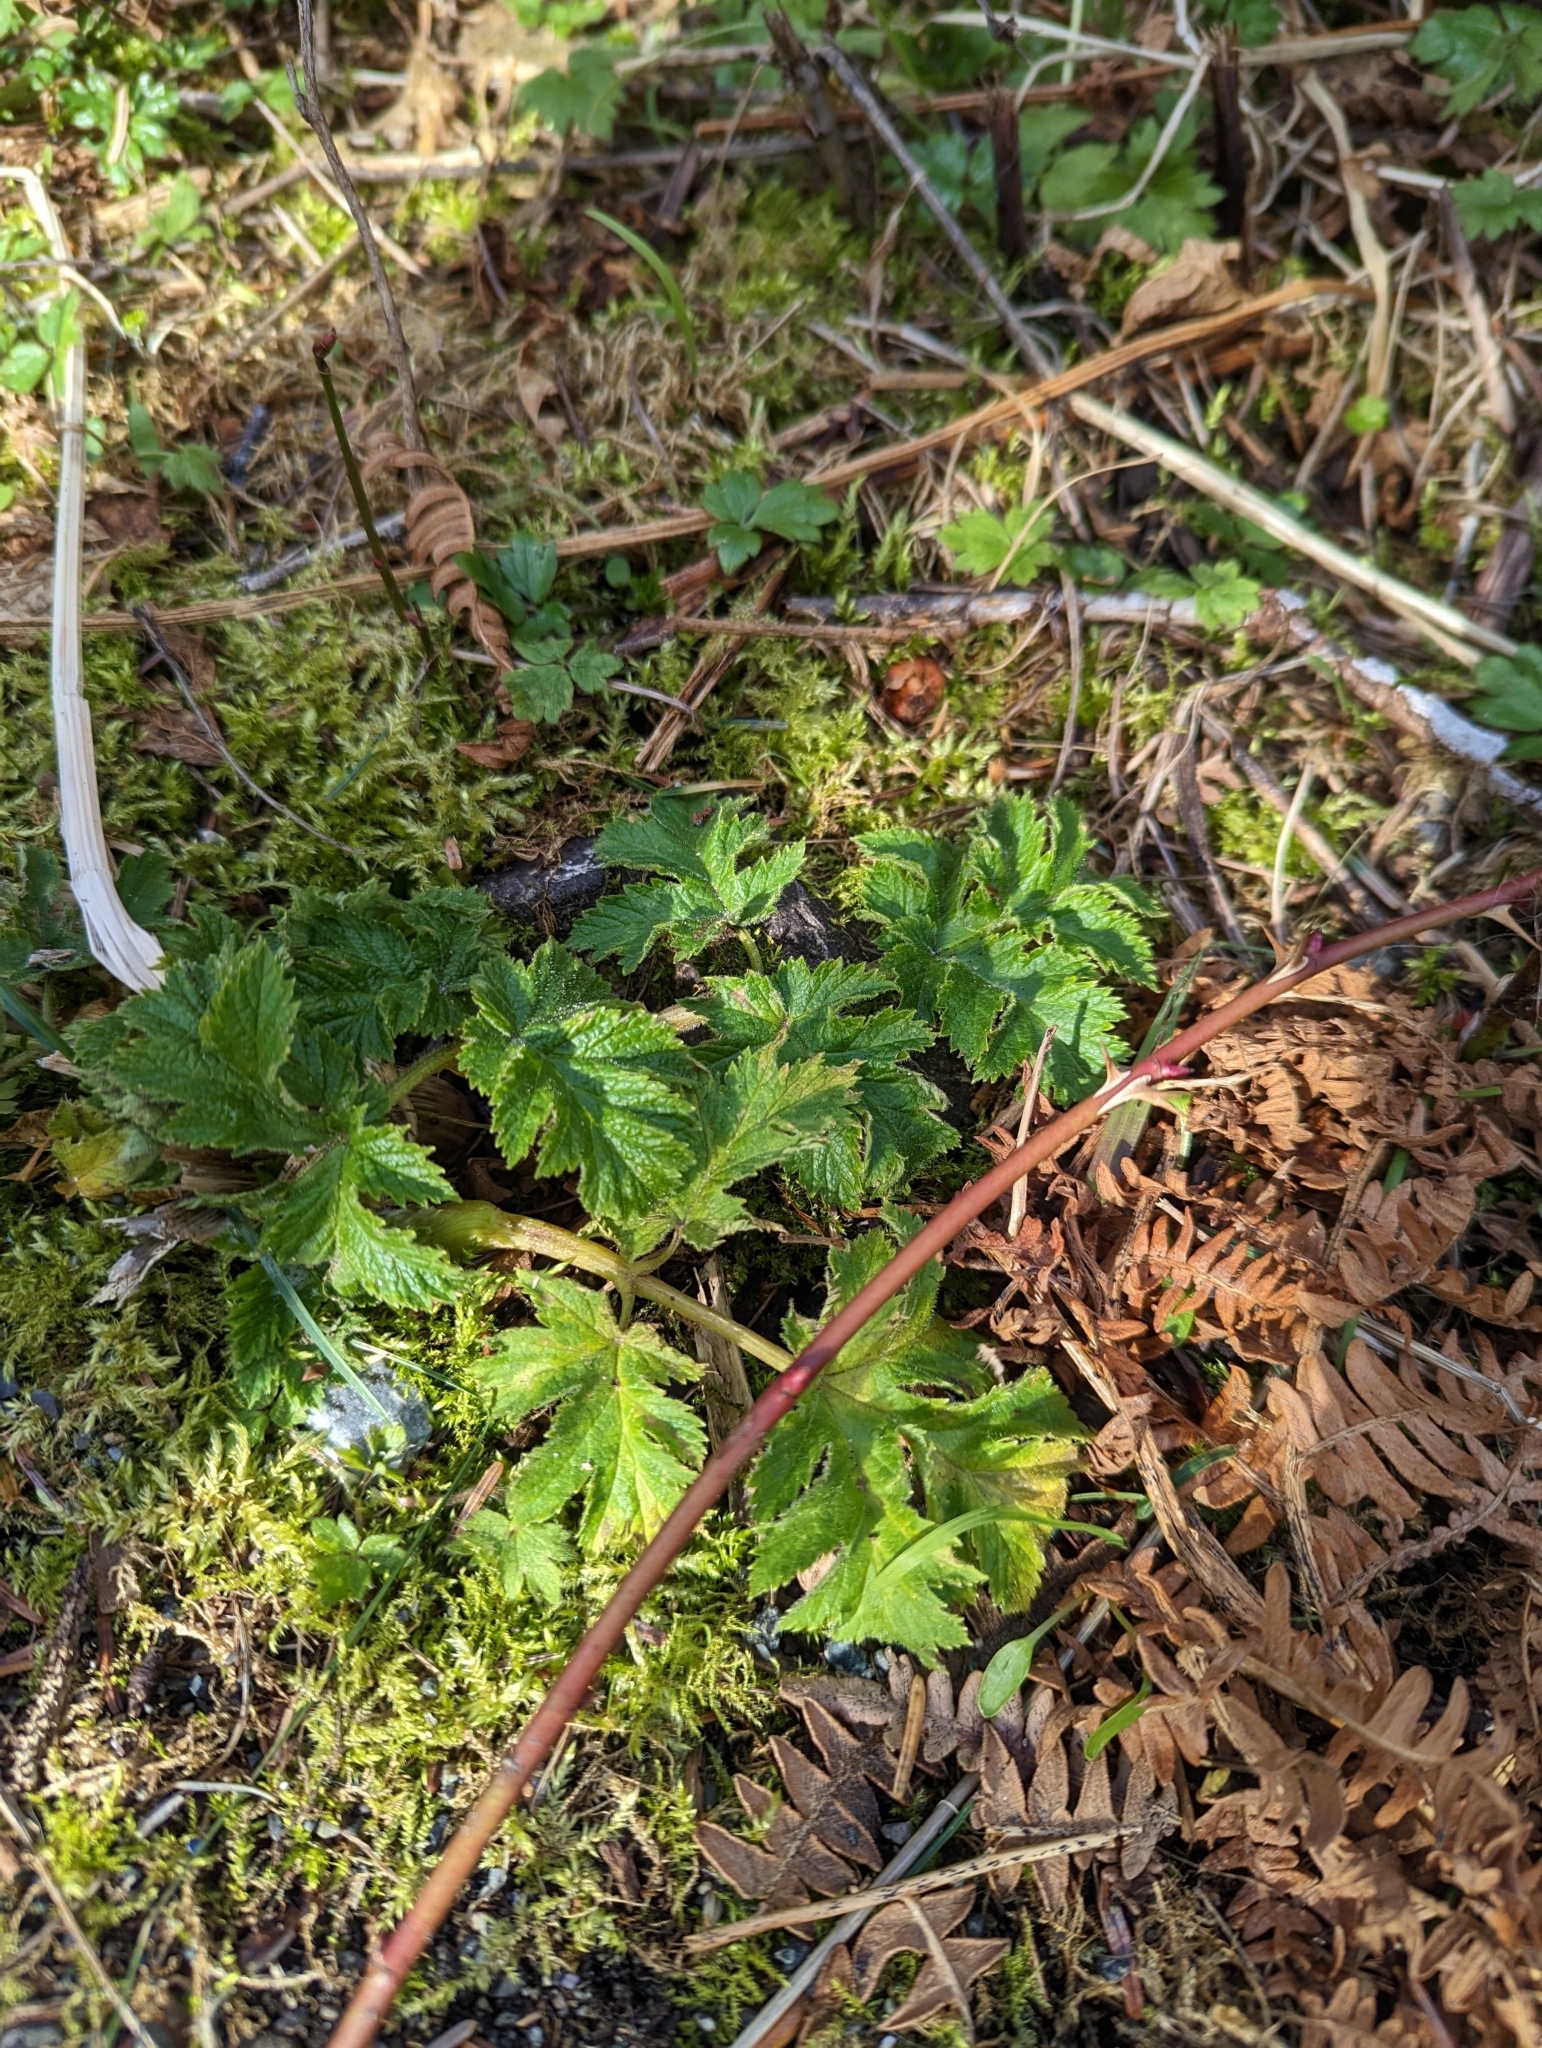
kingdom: Plantae
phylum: Tracheophyta
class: Magnoliopsida
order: Apiales
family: Apiaceae
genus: Heracleum
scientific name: Heracleum maximum
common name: American cow parsnip
